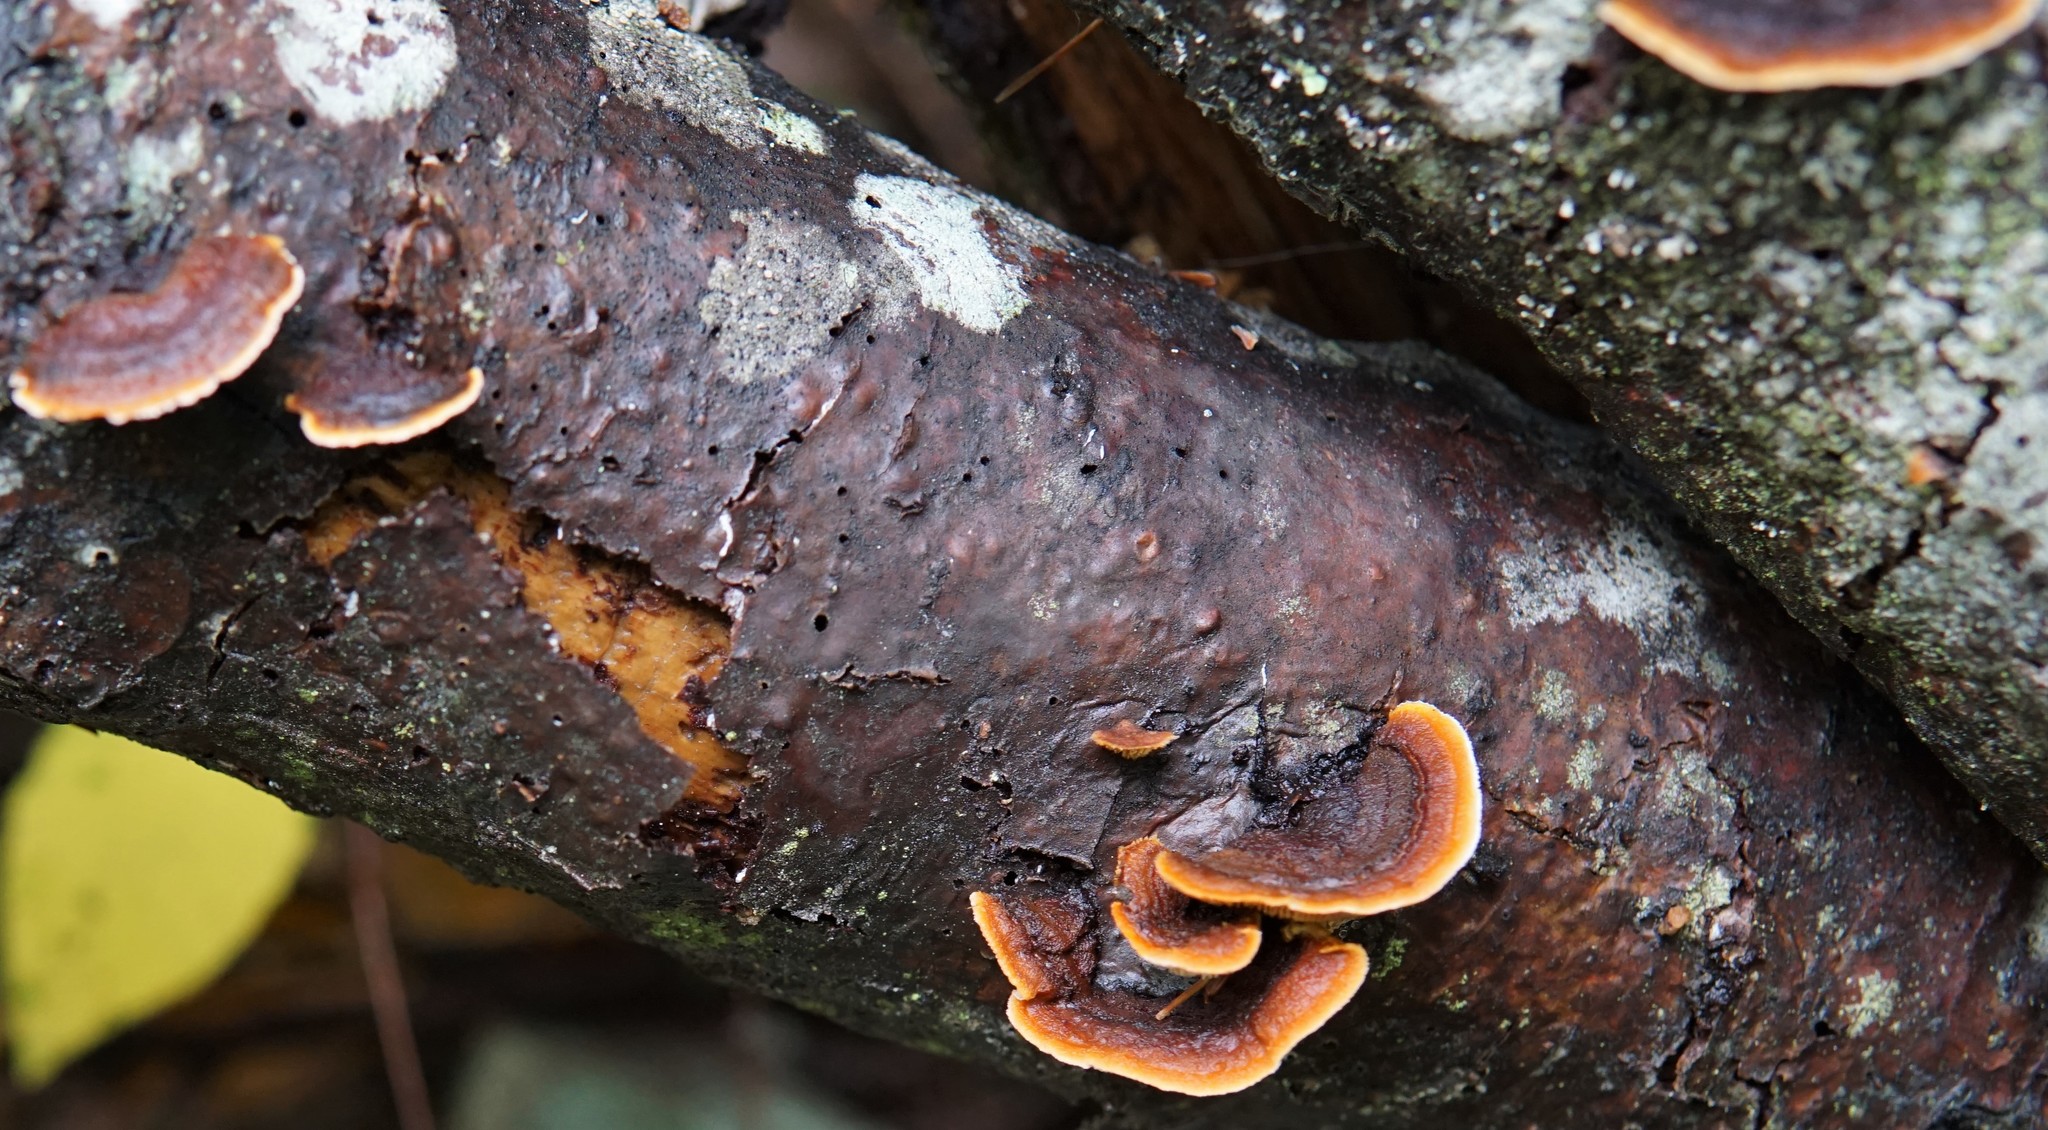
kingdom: Fungi
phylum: Basidiomycota
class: Agaricomycetes
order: Gloeophyllales
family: Gloeophyllaceae
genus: Gloeophyllum
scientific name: Gloeophyllum sepiarium
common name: Conifer mazegill
